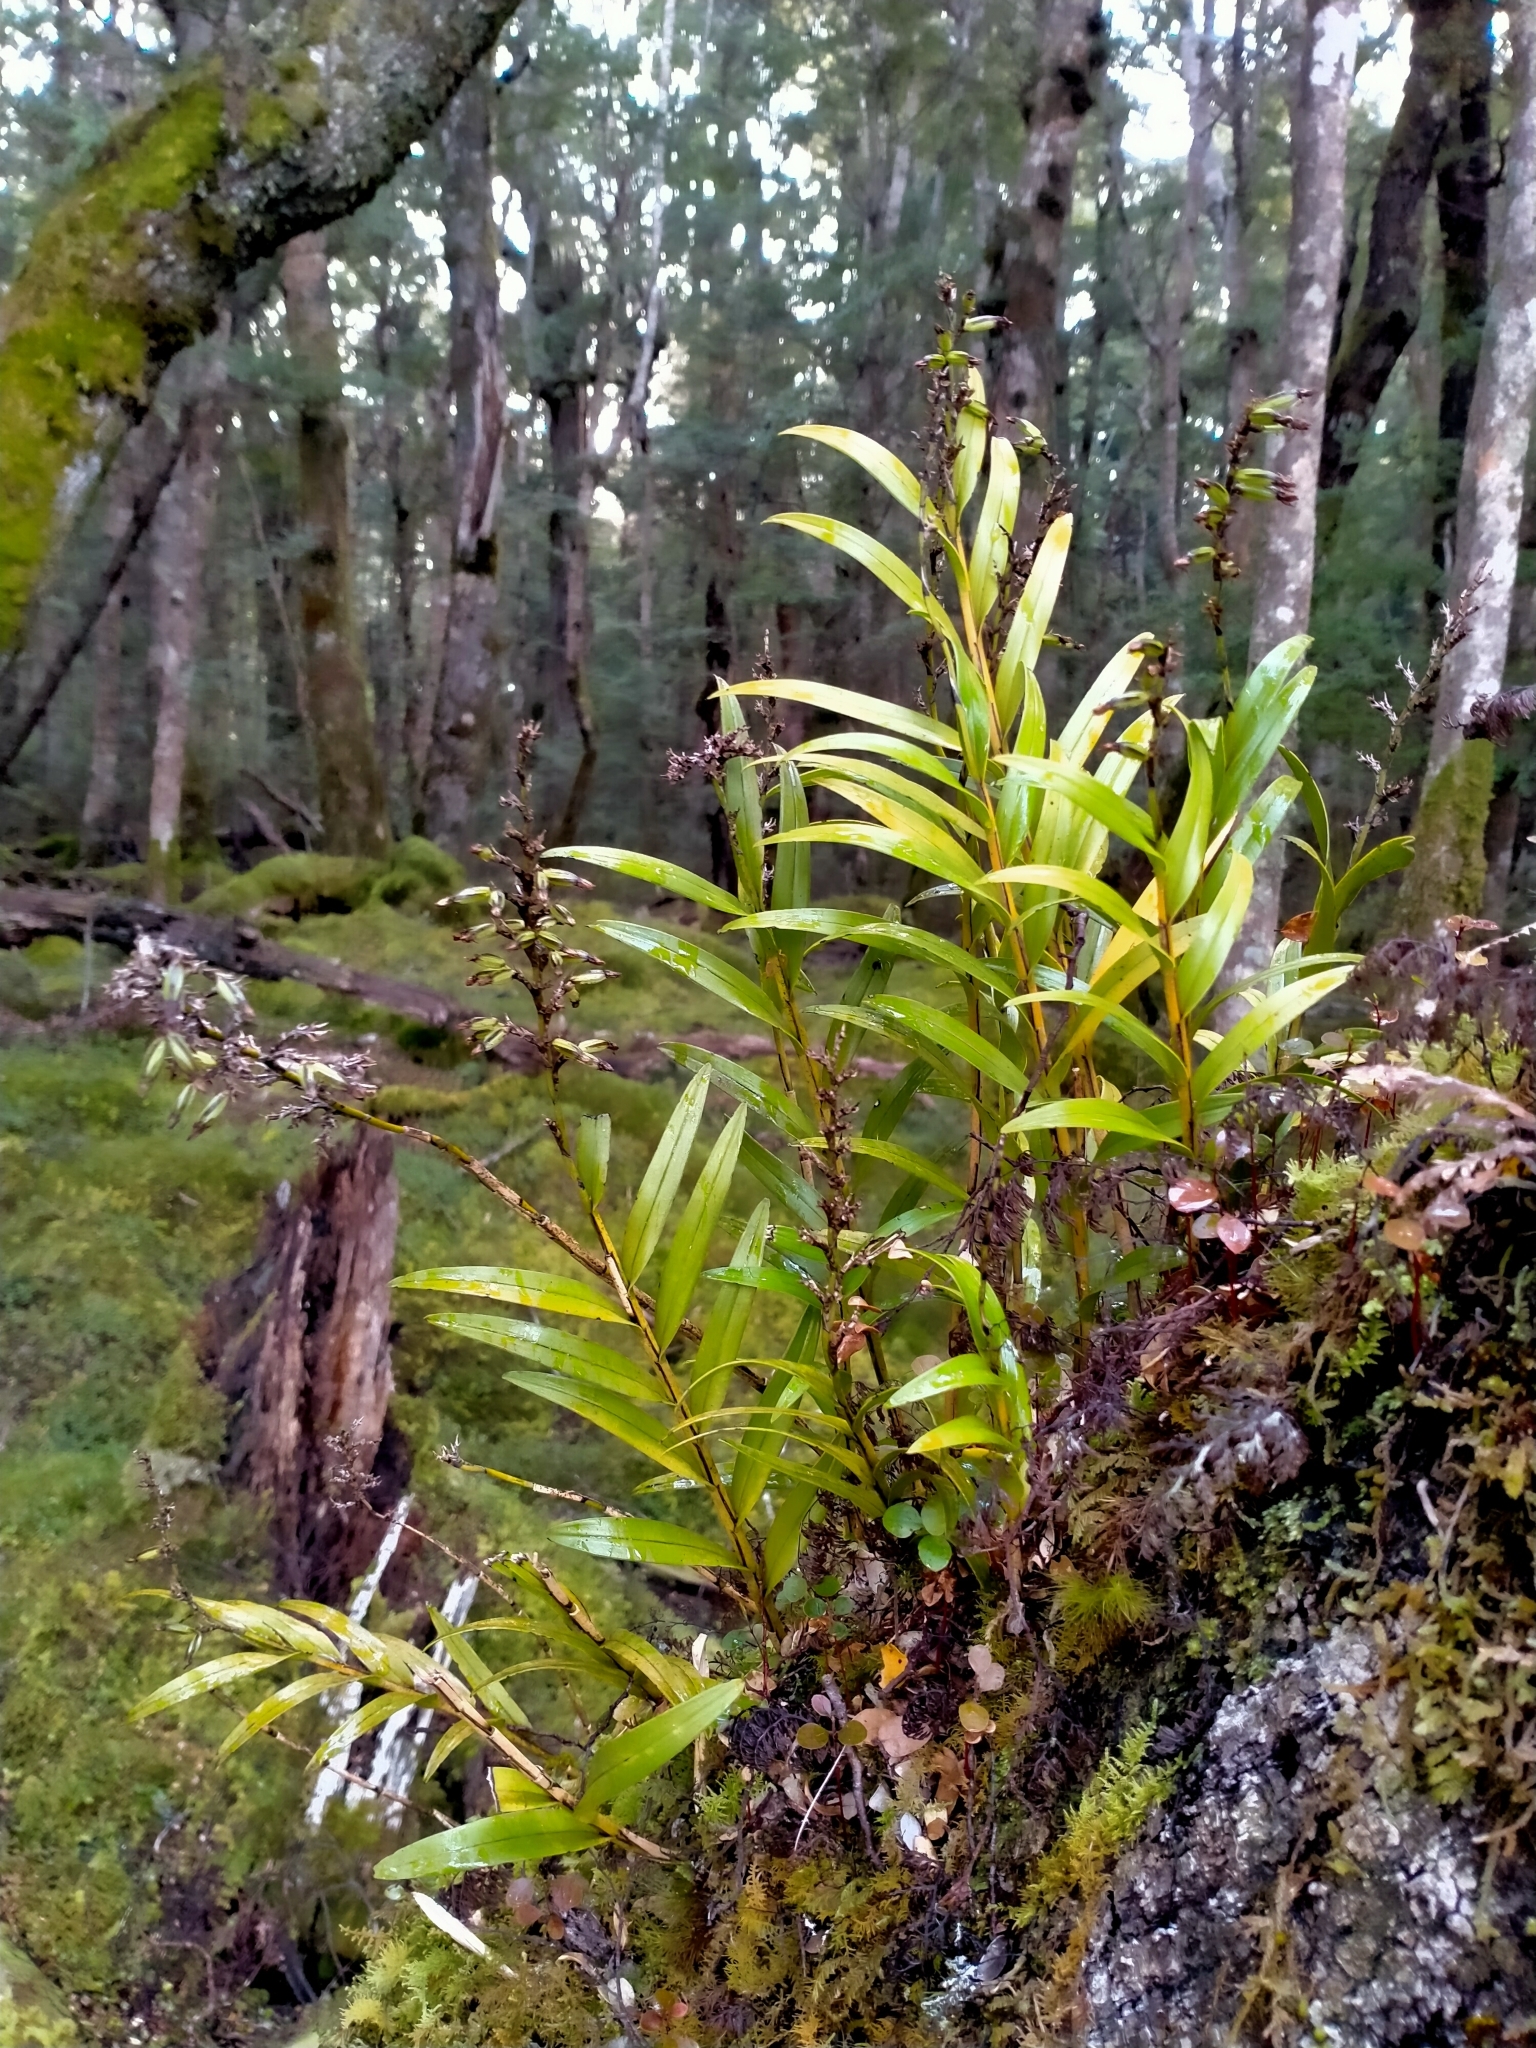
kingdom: Plantae
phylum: Tracheophyta
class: Liliopsida
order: Asparagales
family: Orchidaceae
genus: Earina
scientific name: Earina autumnalis
